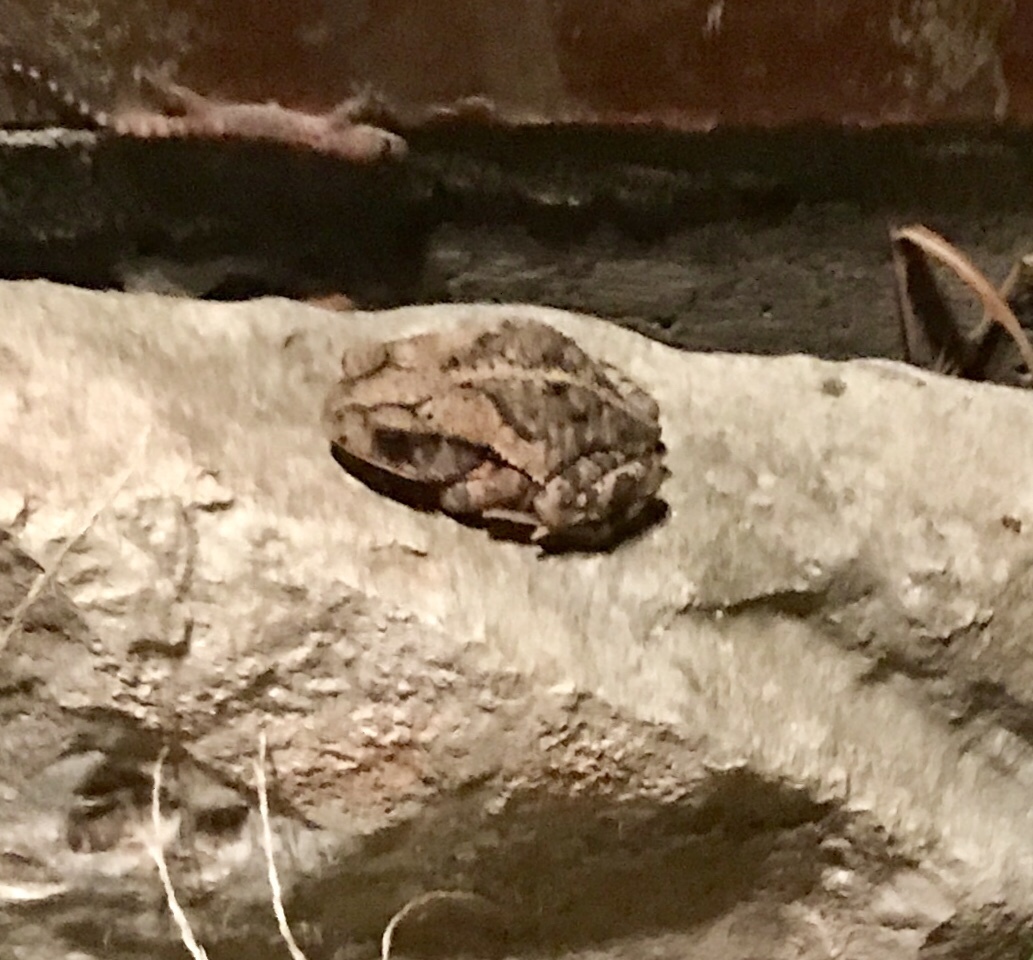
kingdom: Animalia
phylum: Chordata
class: Amphibia
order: Anura
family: Bufonidae
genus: Incilius
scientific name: Incilius nebulifer
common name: Gulf coast toad
